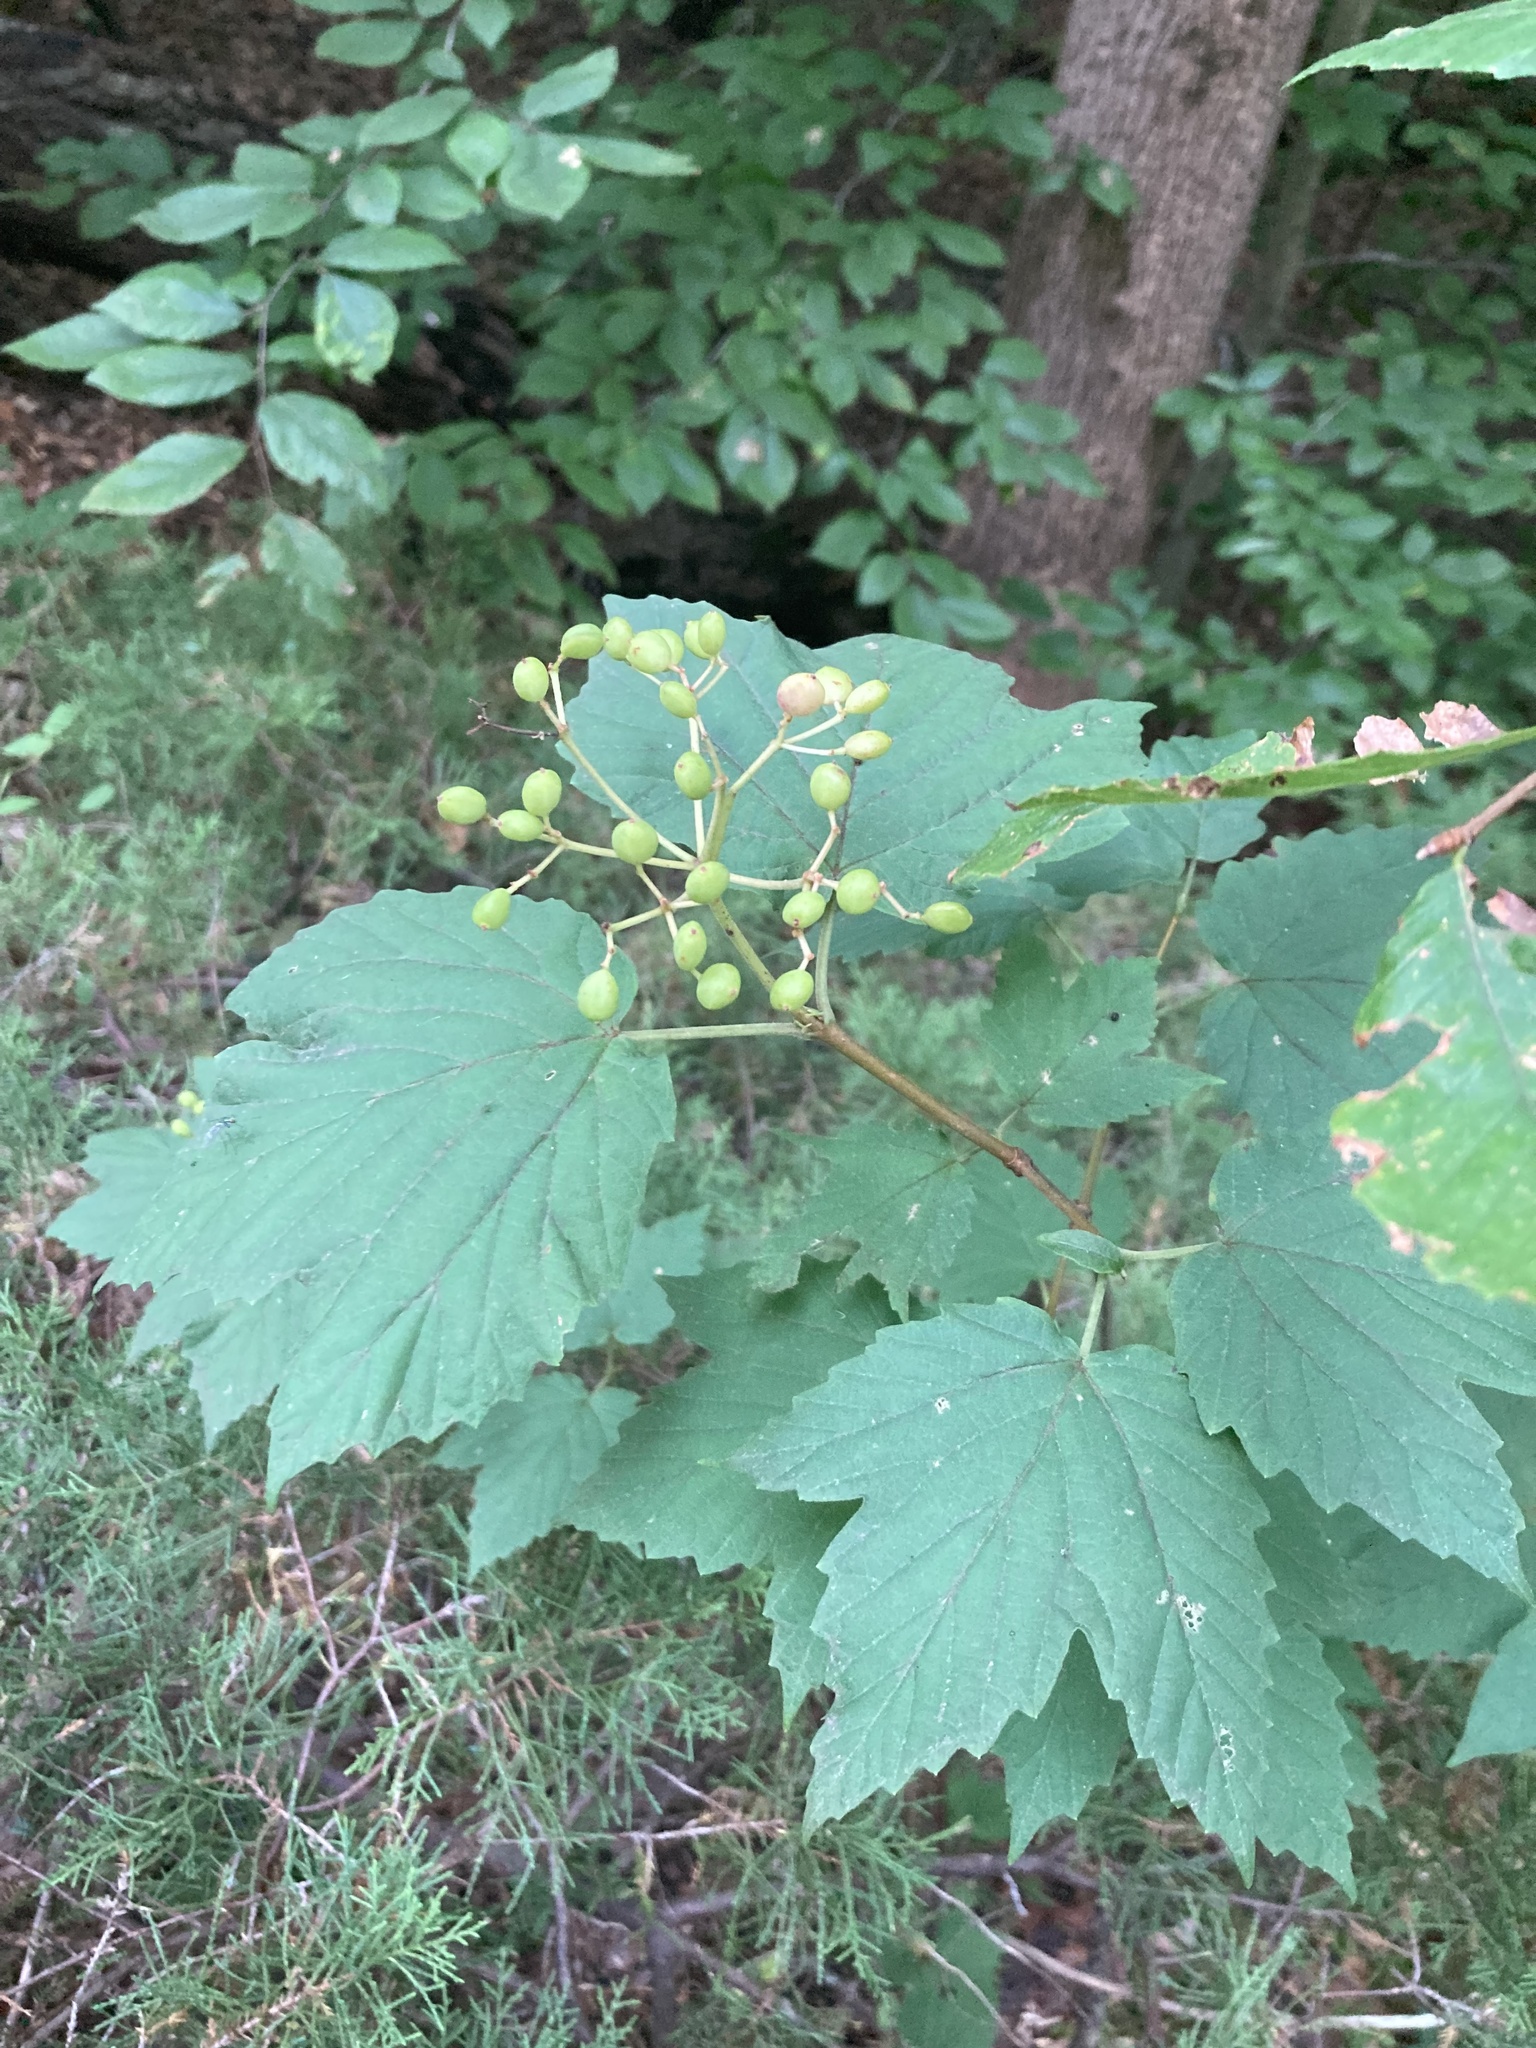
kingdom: Plantae
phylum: Tracheophyta
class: Magnoliopsida
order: Dipsacales
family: Viburnaceae
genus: Viburnum
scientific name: Viburnum acerifolium
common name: Dockmackie
